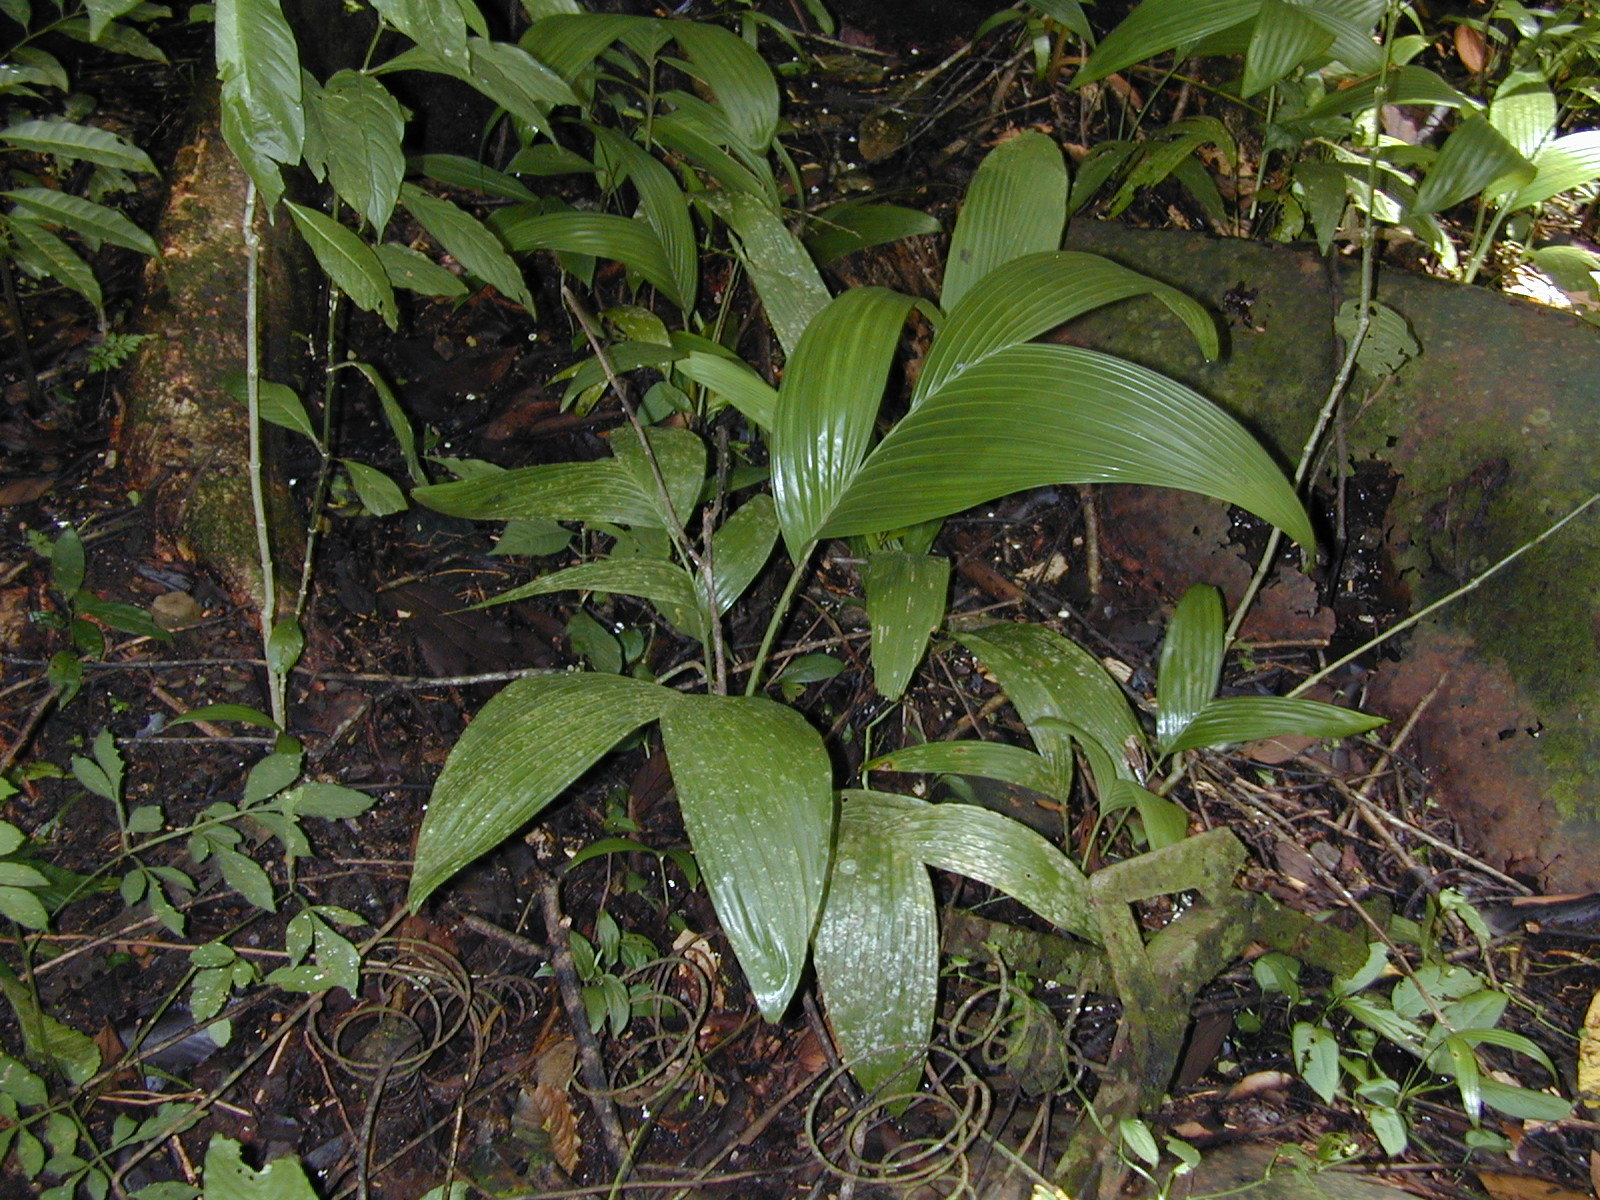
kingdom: Plantae
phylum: Tracheophyta
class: Liliopsida
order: Arecales
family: Arecaceae
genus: Areca
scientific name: Areca triandra
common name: Australian areca palm
